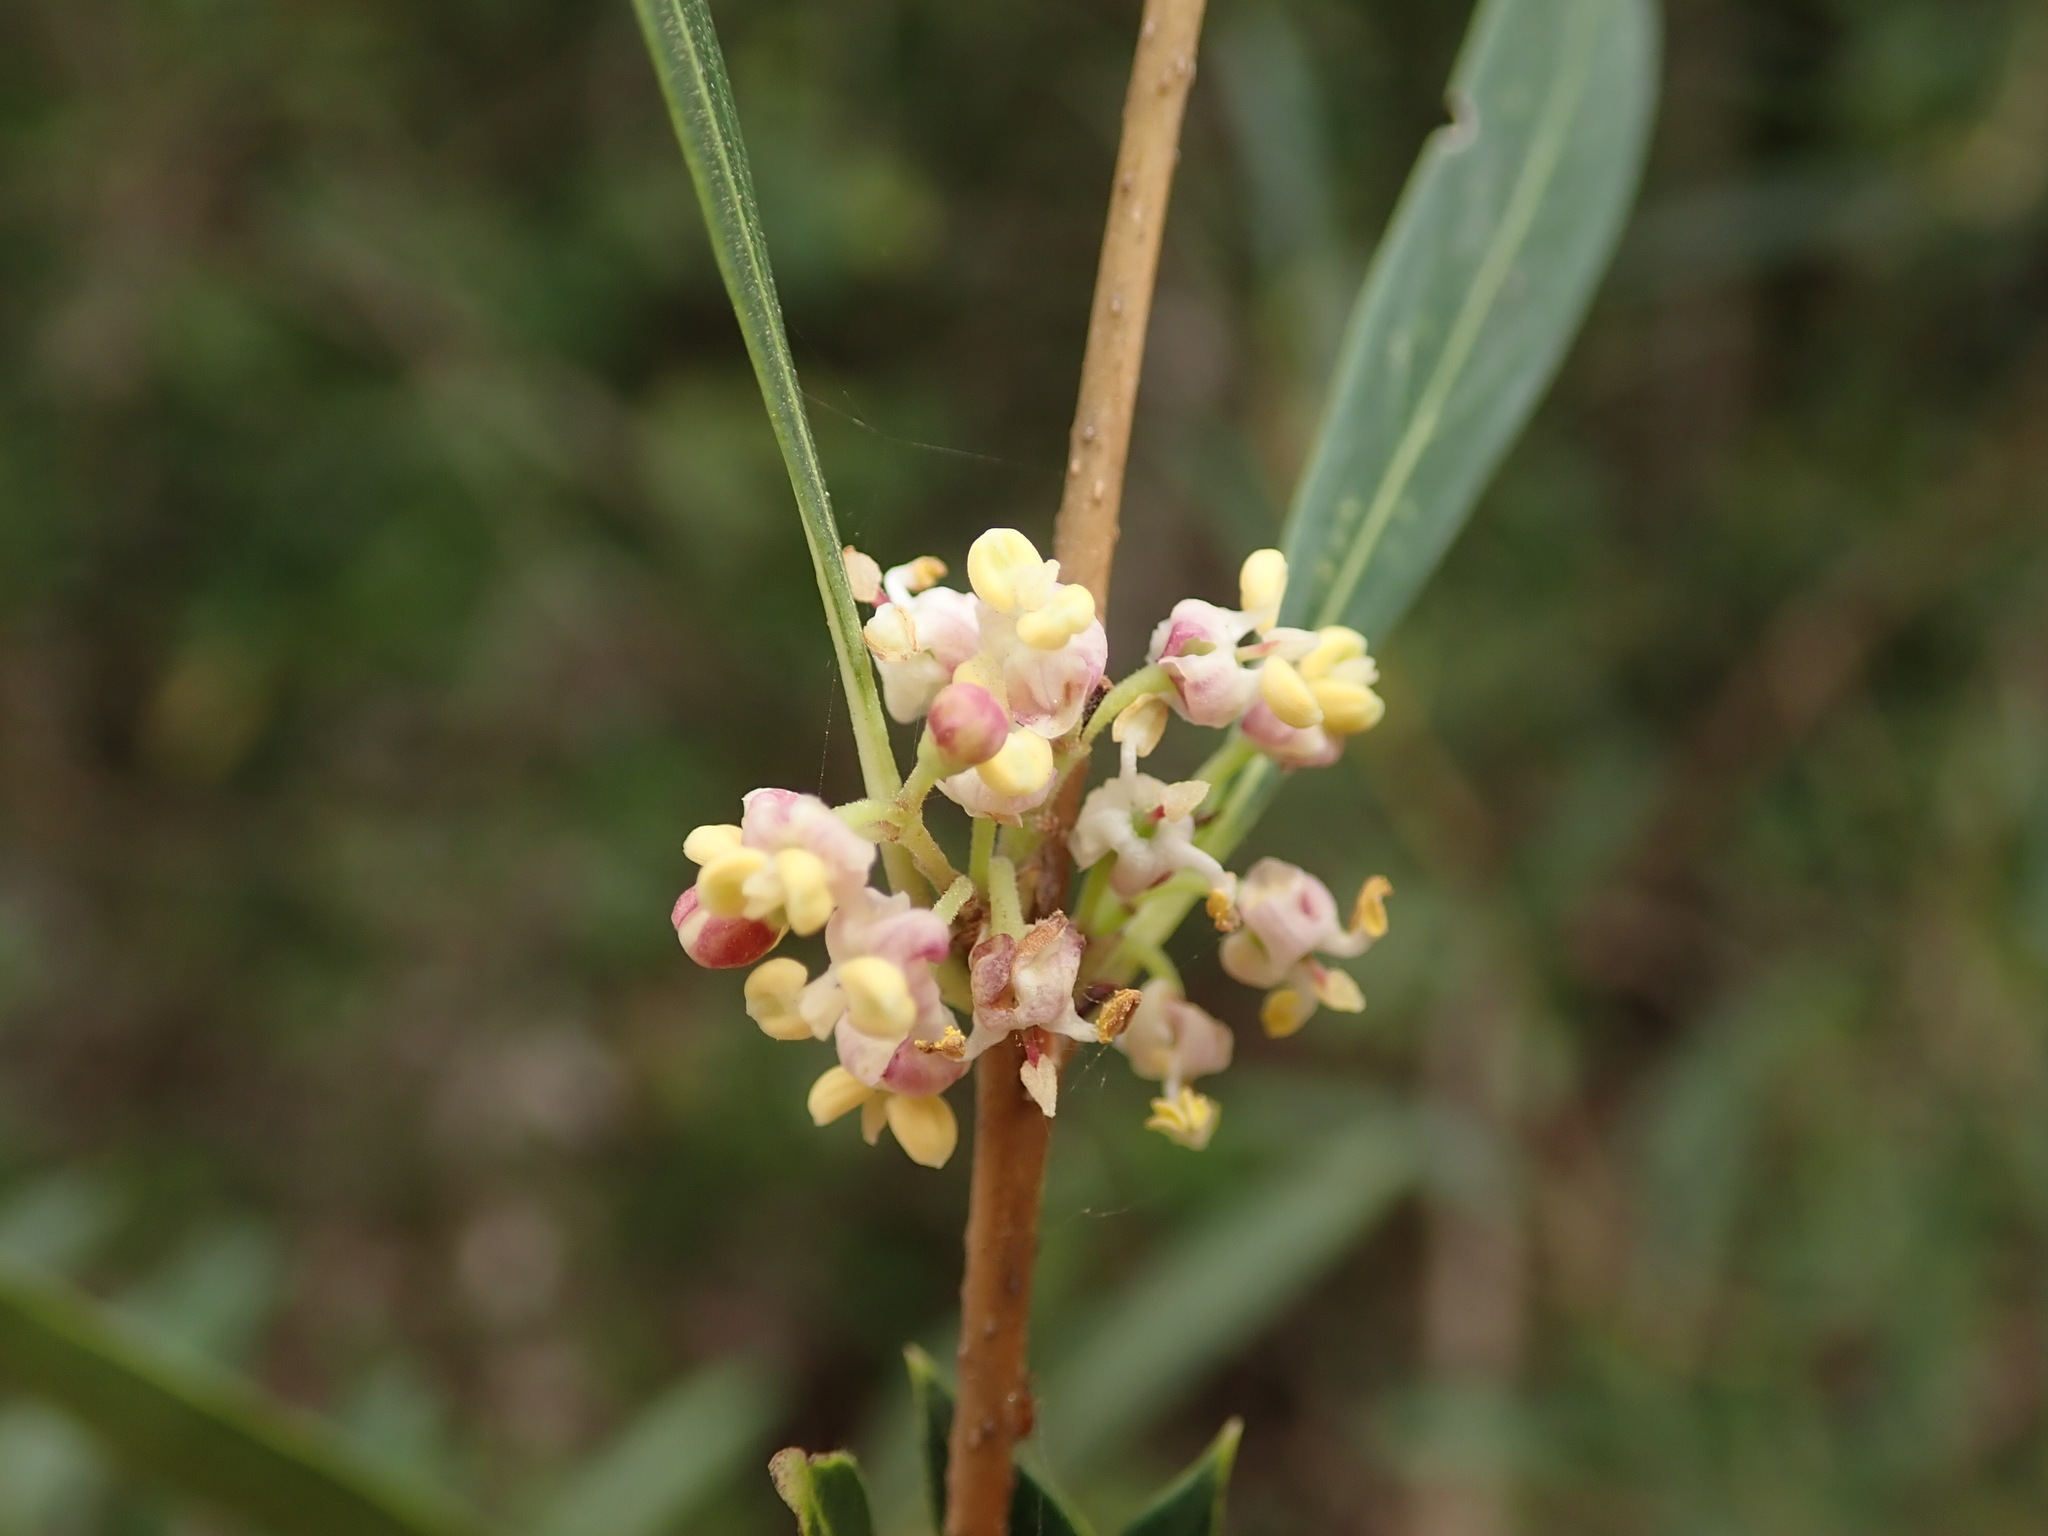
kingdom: Plantae
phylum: Tracheophyta
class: Magnoliopsida
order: Lamiales
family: Oleaceae
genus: Phillyrea
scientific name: Phillyrea angustifolia
